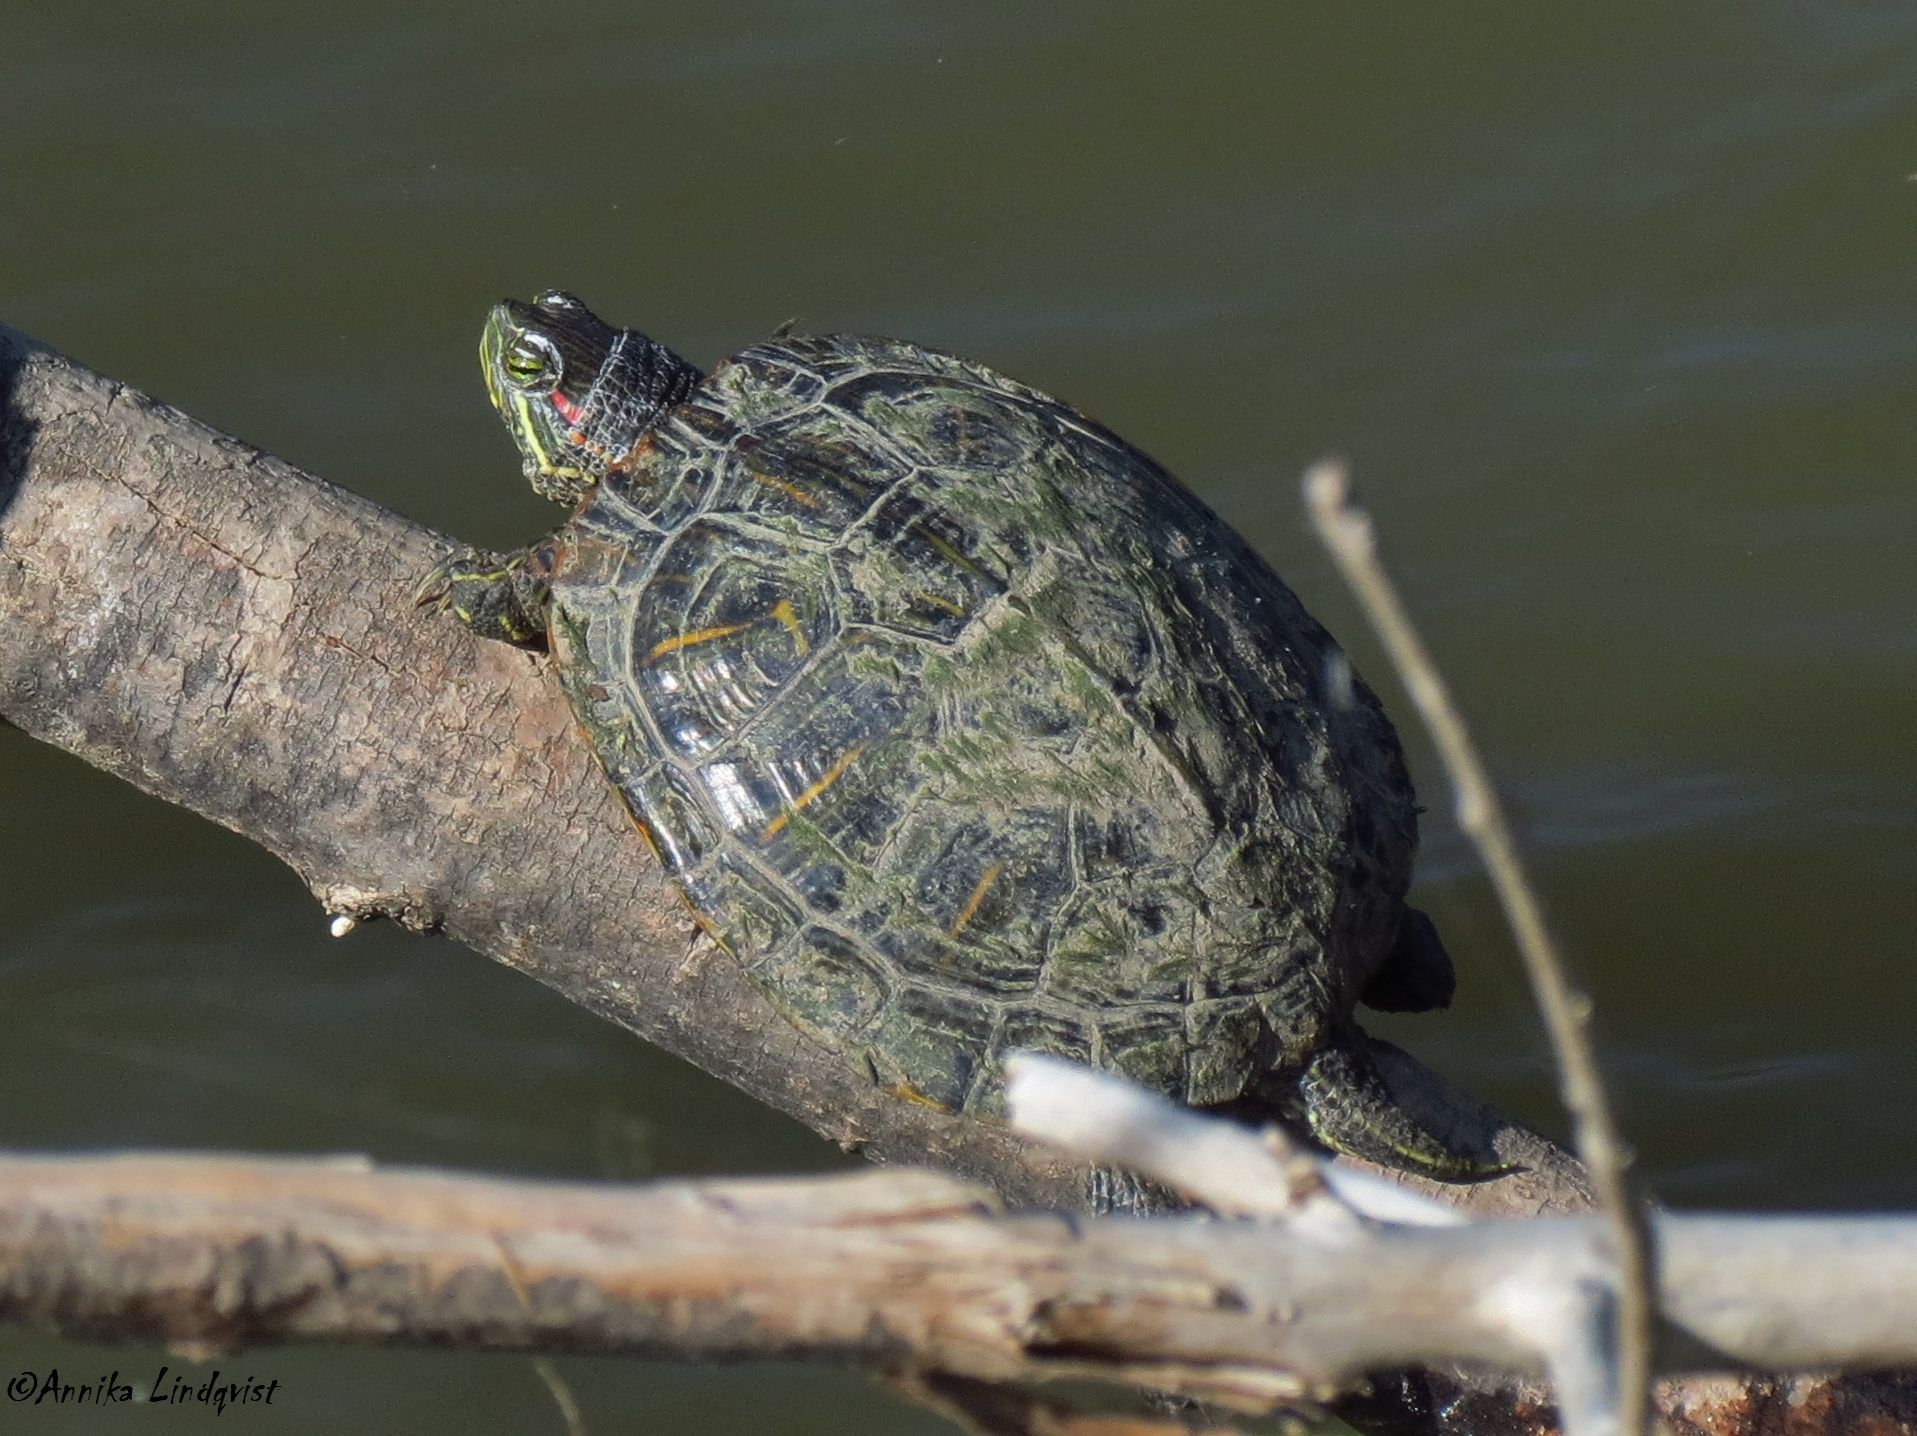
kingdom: Animalia
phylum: Chordata
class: Testudines
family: Emydidae
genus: Trachemys
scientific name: Trachemys scripta
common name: Slider
